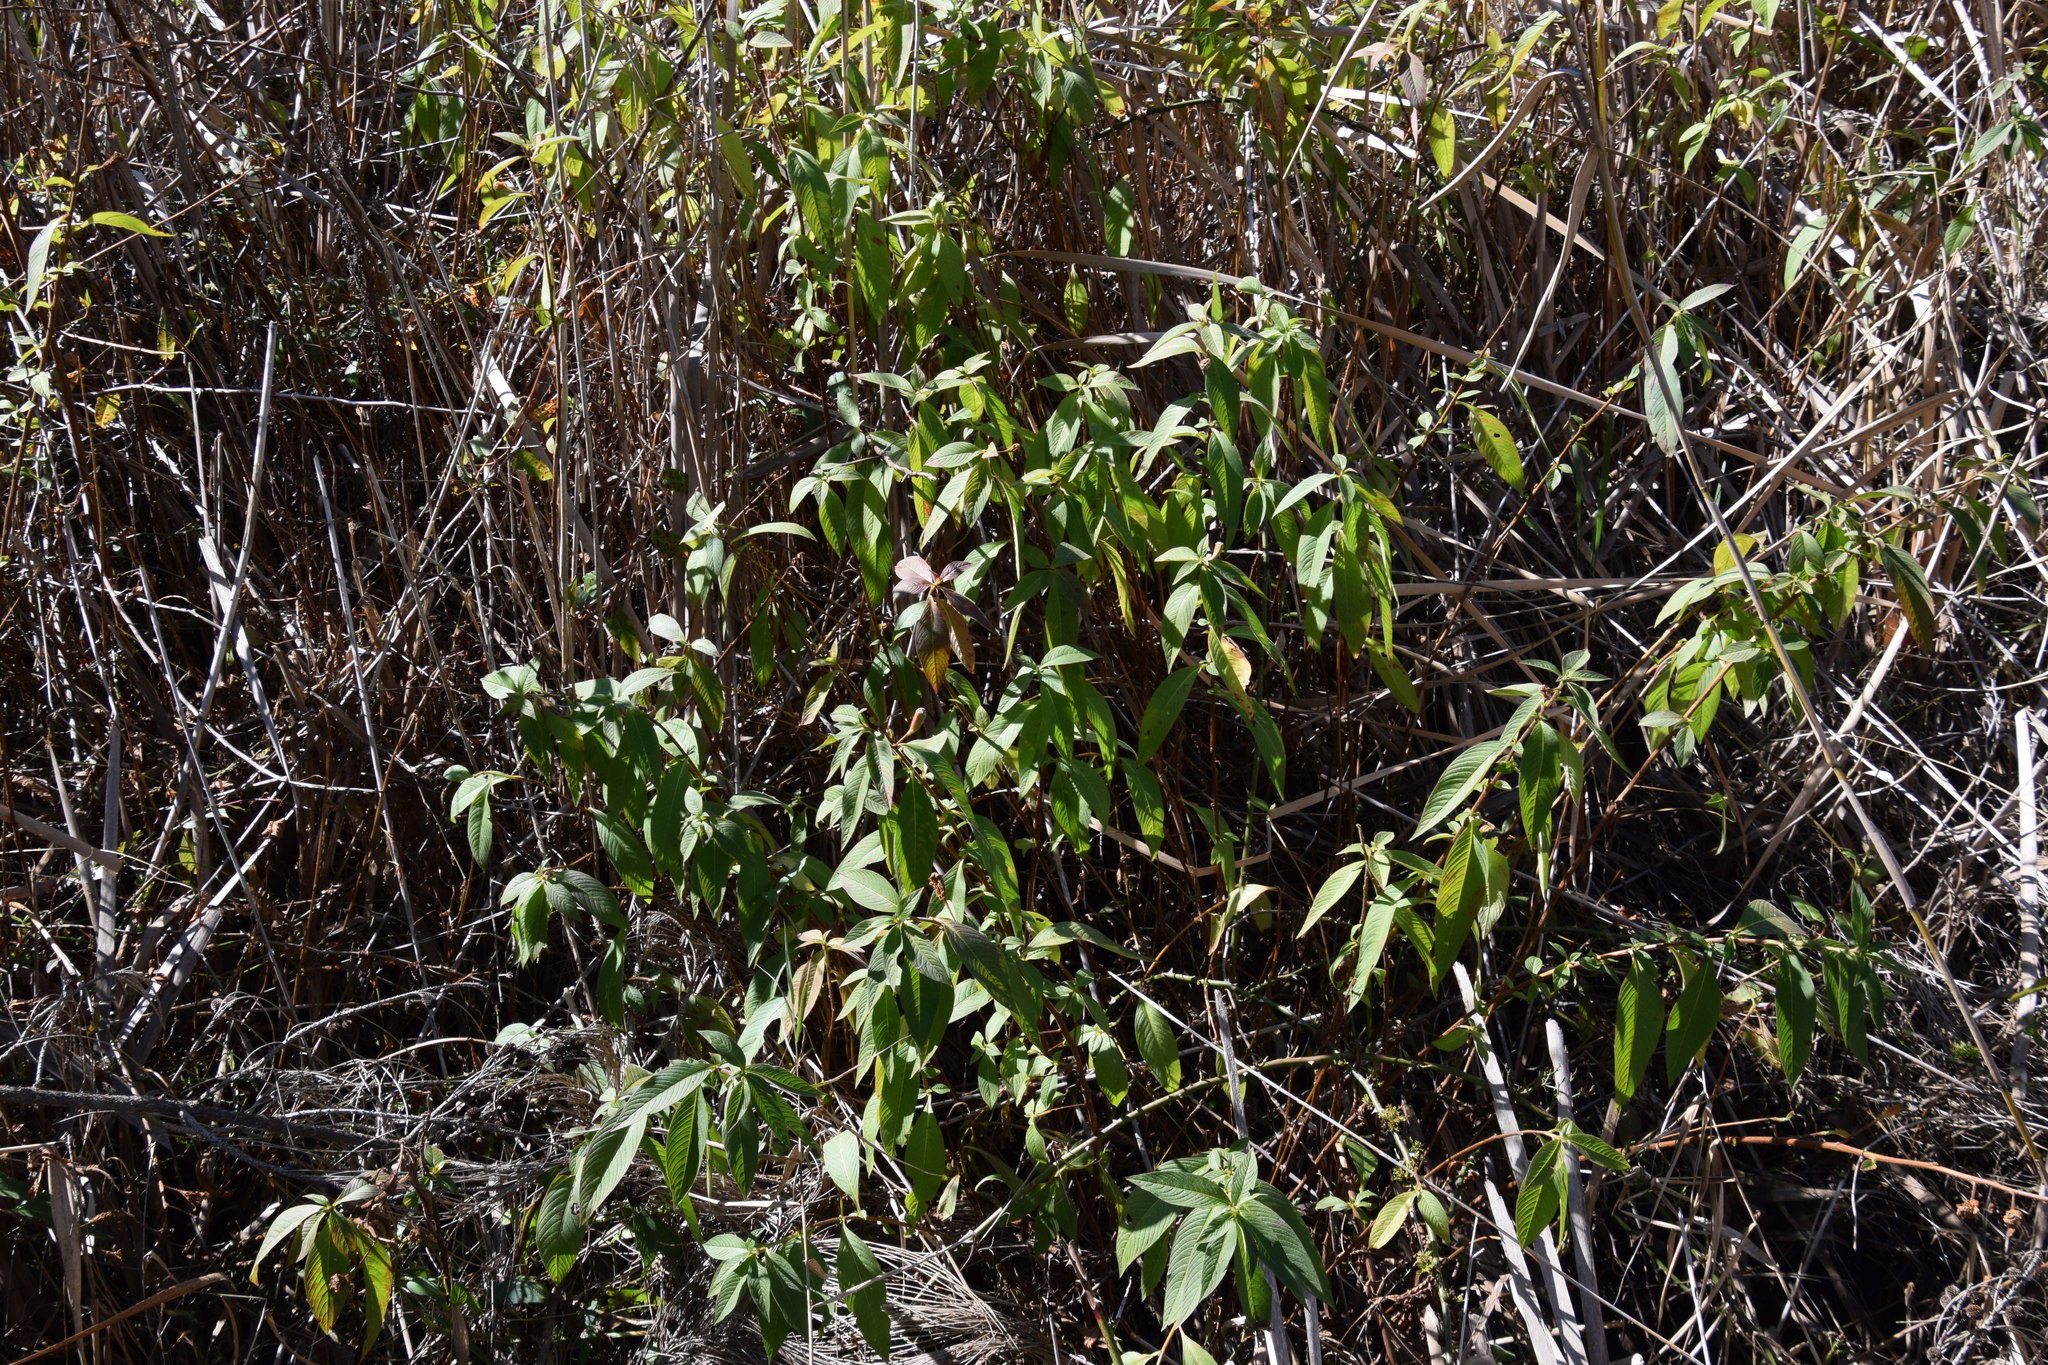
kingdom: Plantae
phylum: Tracheophyta
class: Magnoliopsida
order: Myrtales
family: Onagraceae
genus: Ludwigia
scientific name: Ludwigia peruviana
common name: Peruvian primrose-willow
